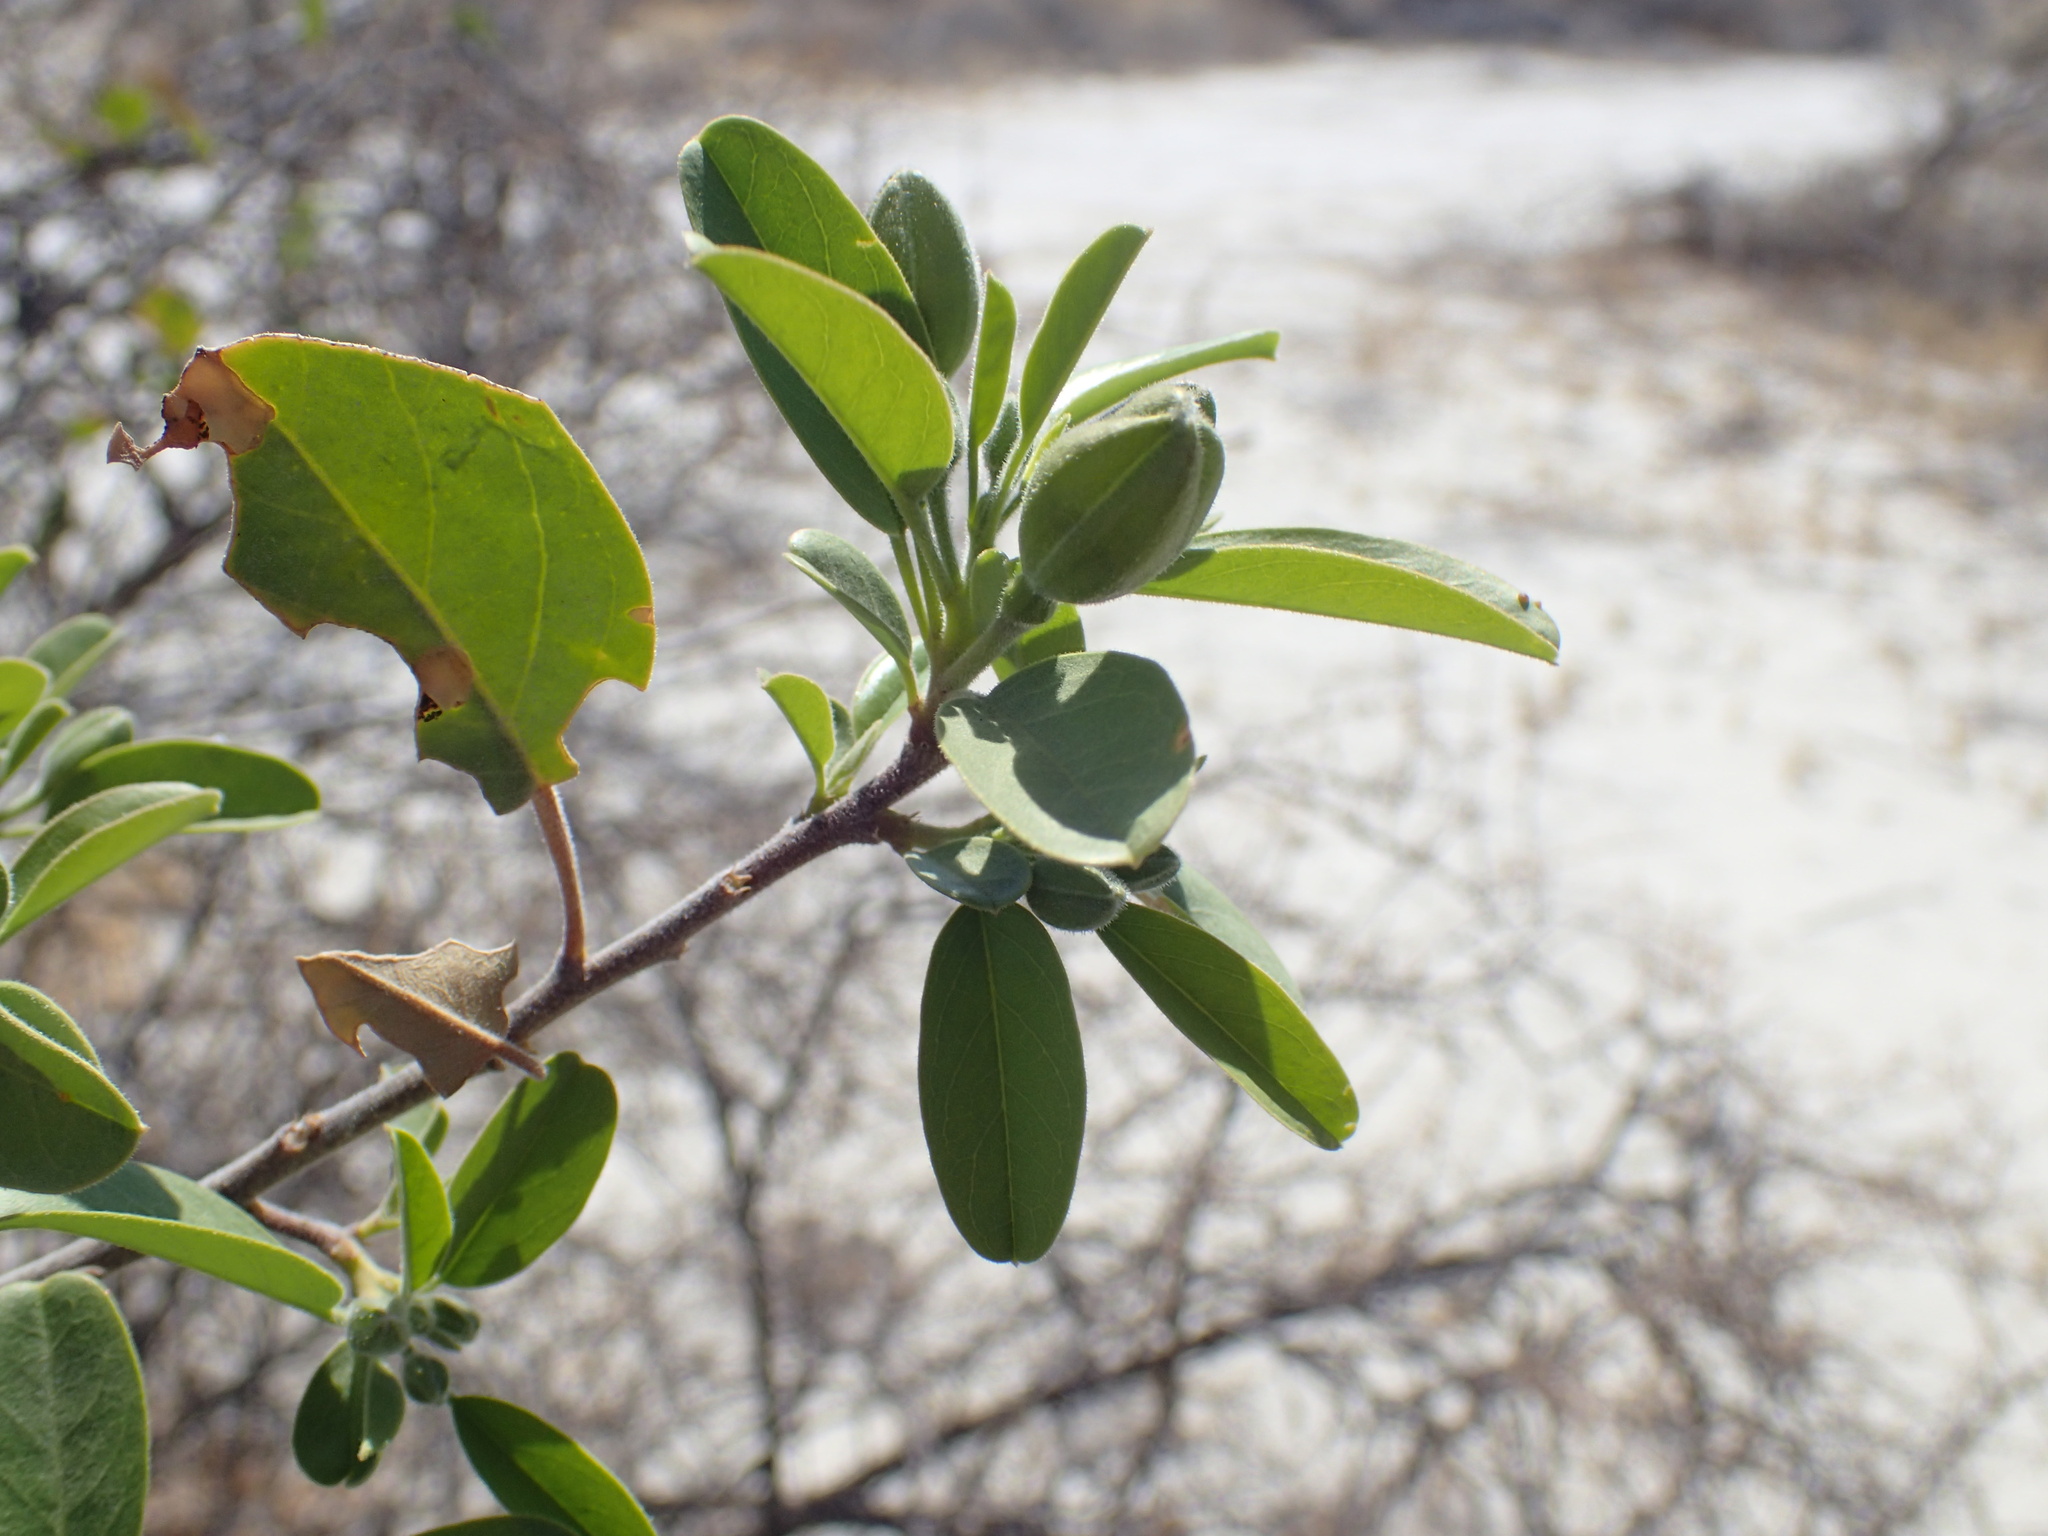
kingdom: Plantae
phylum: Tracheophyta
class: Magnoliopsida
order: Brassicales
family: Capparaceae
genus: Maerua
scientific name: Maerua angolensis
